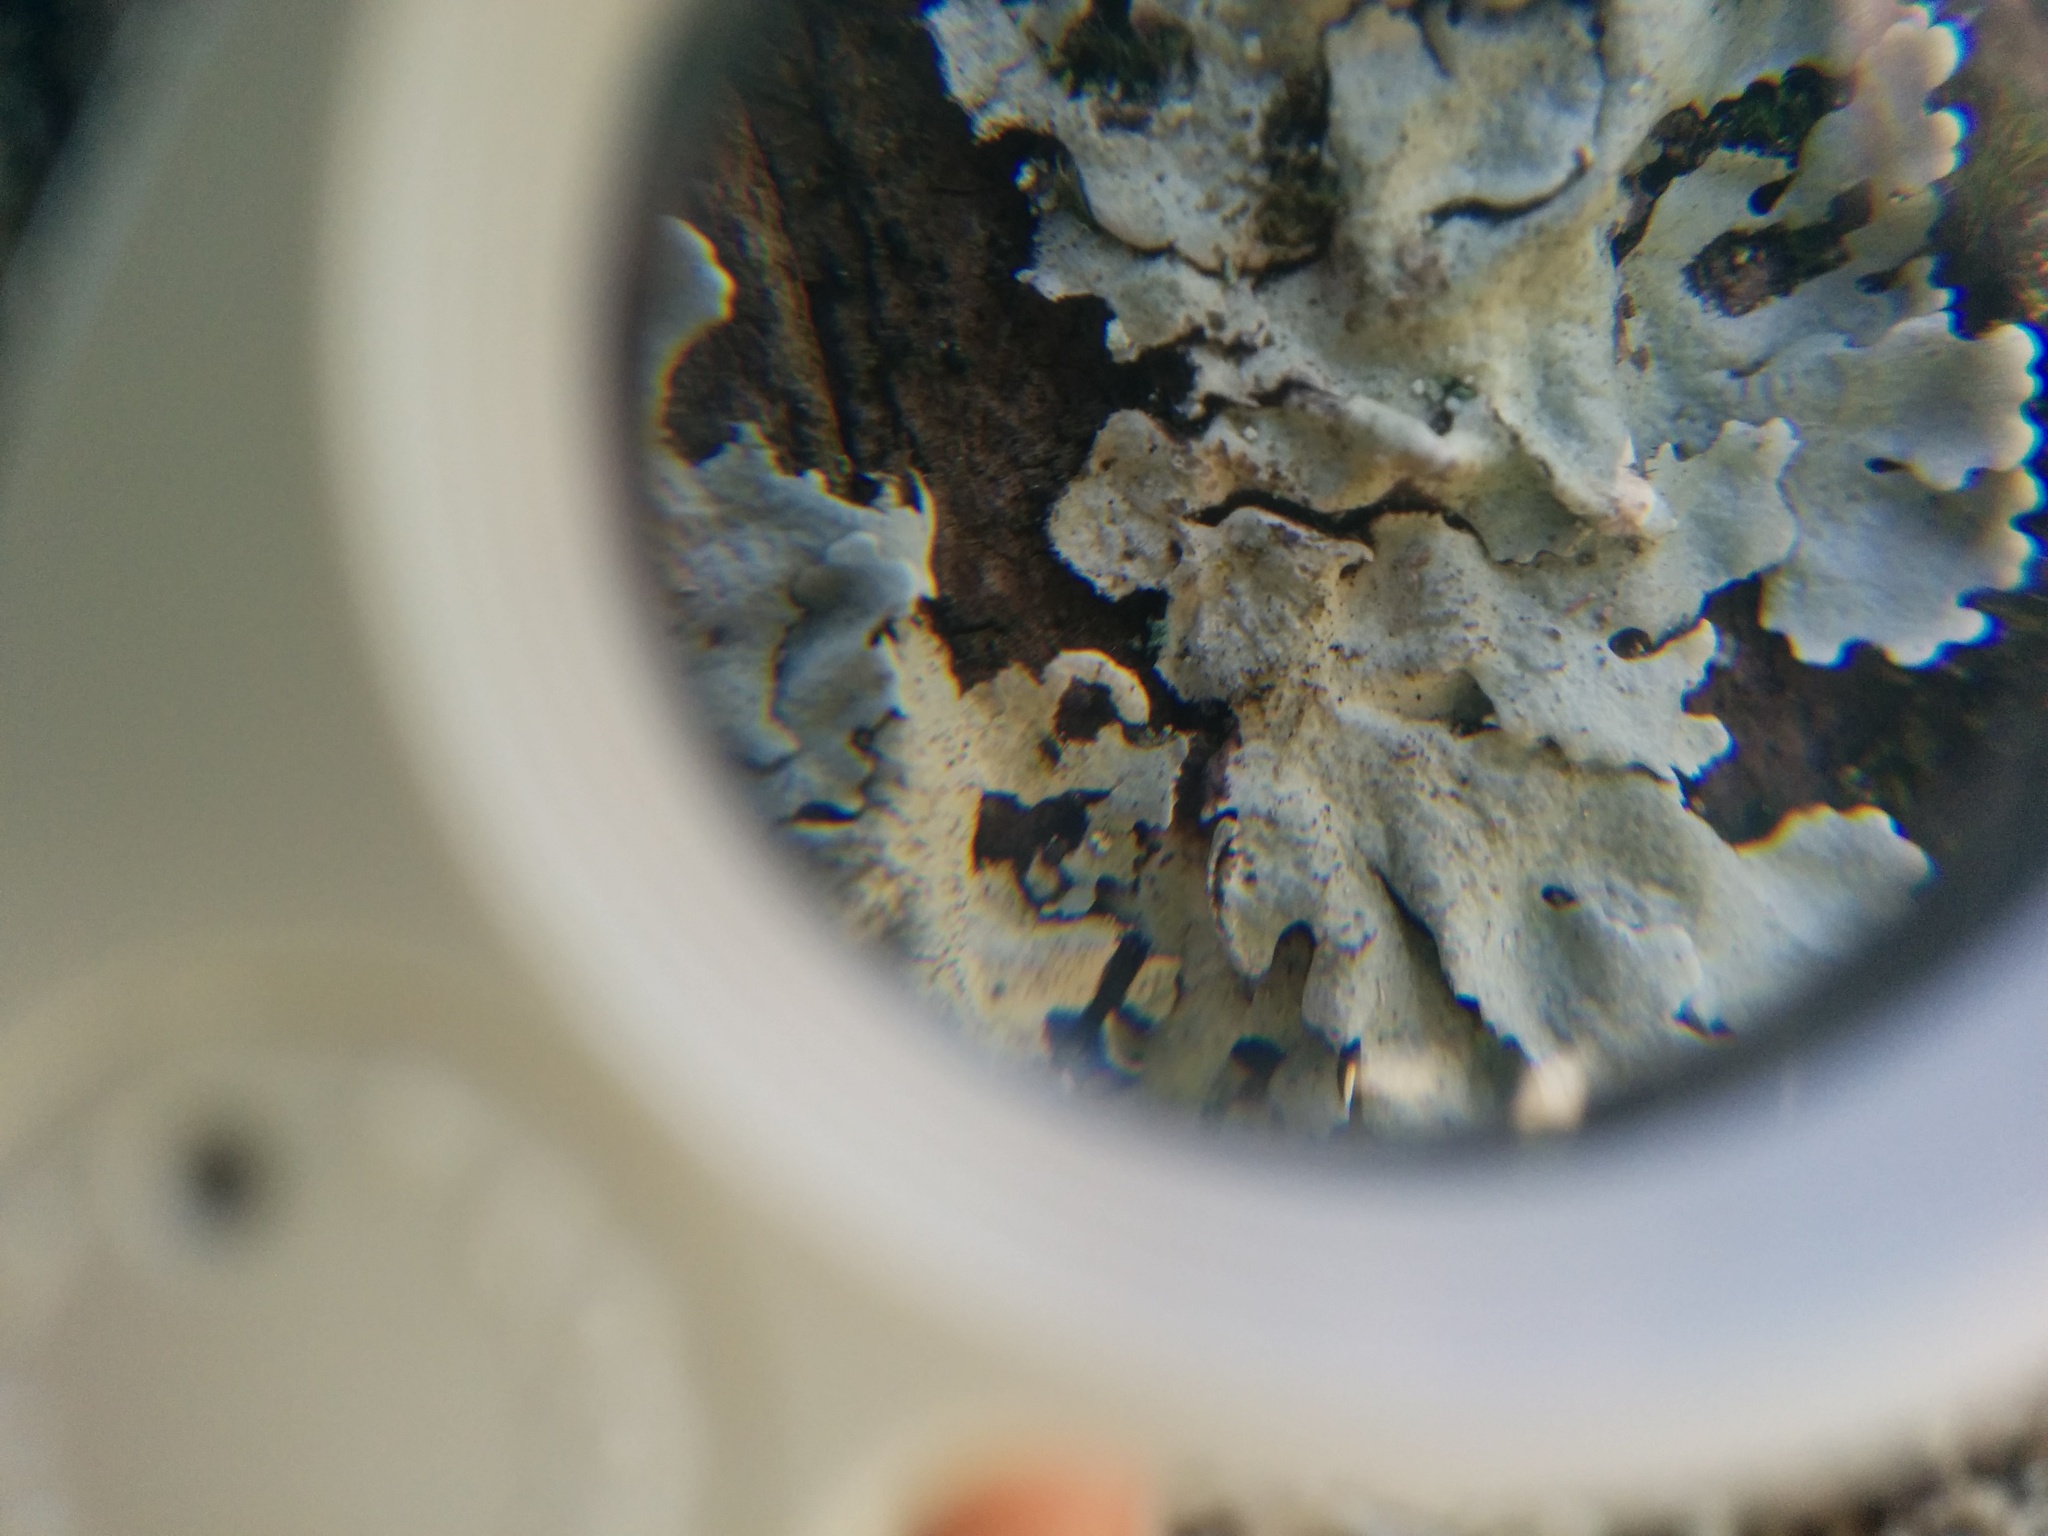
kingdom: Fungi
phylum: Ascomycota
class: Lecanoromycetes
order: Lecanorales
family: Parmeliaceae
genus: Parmelina
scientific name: Parmelina tiliacea
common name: Linden shield lichen
